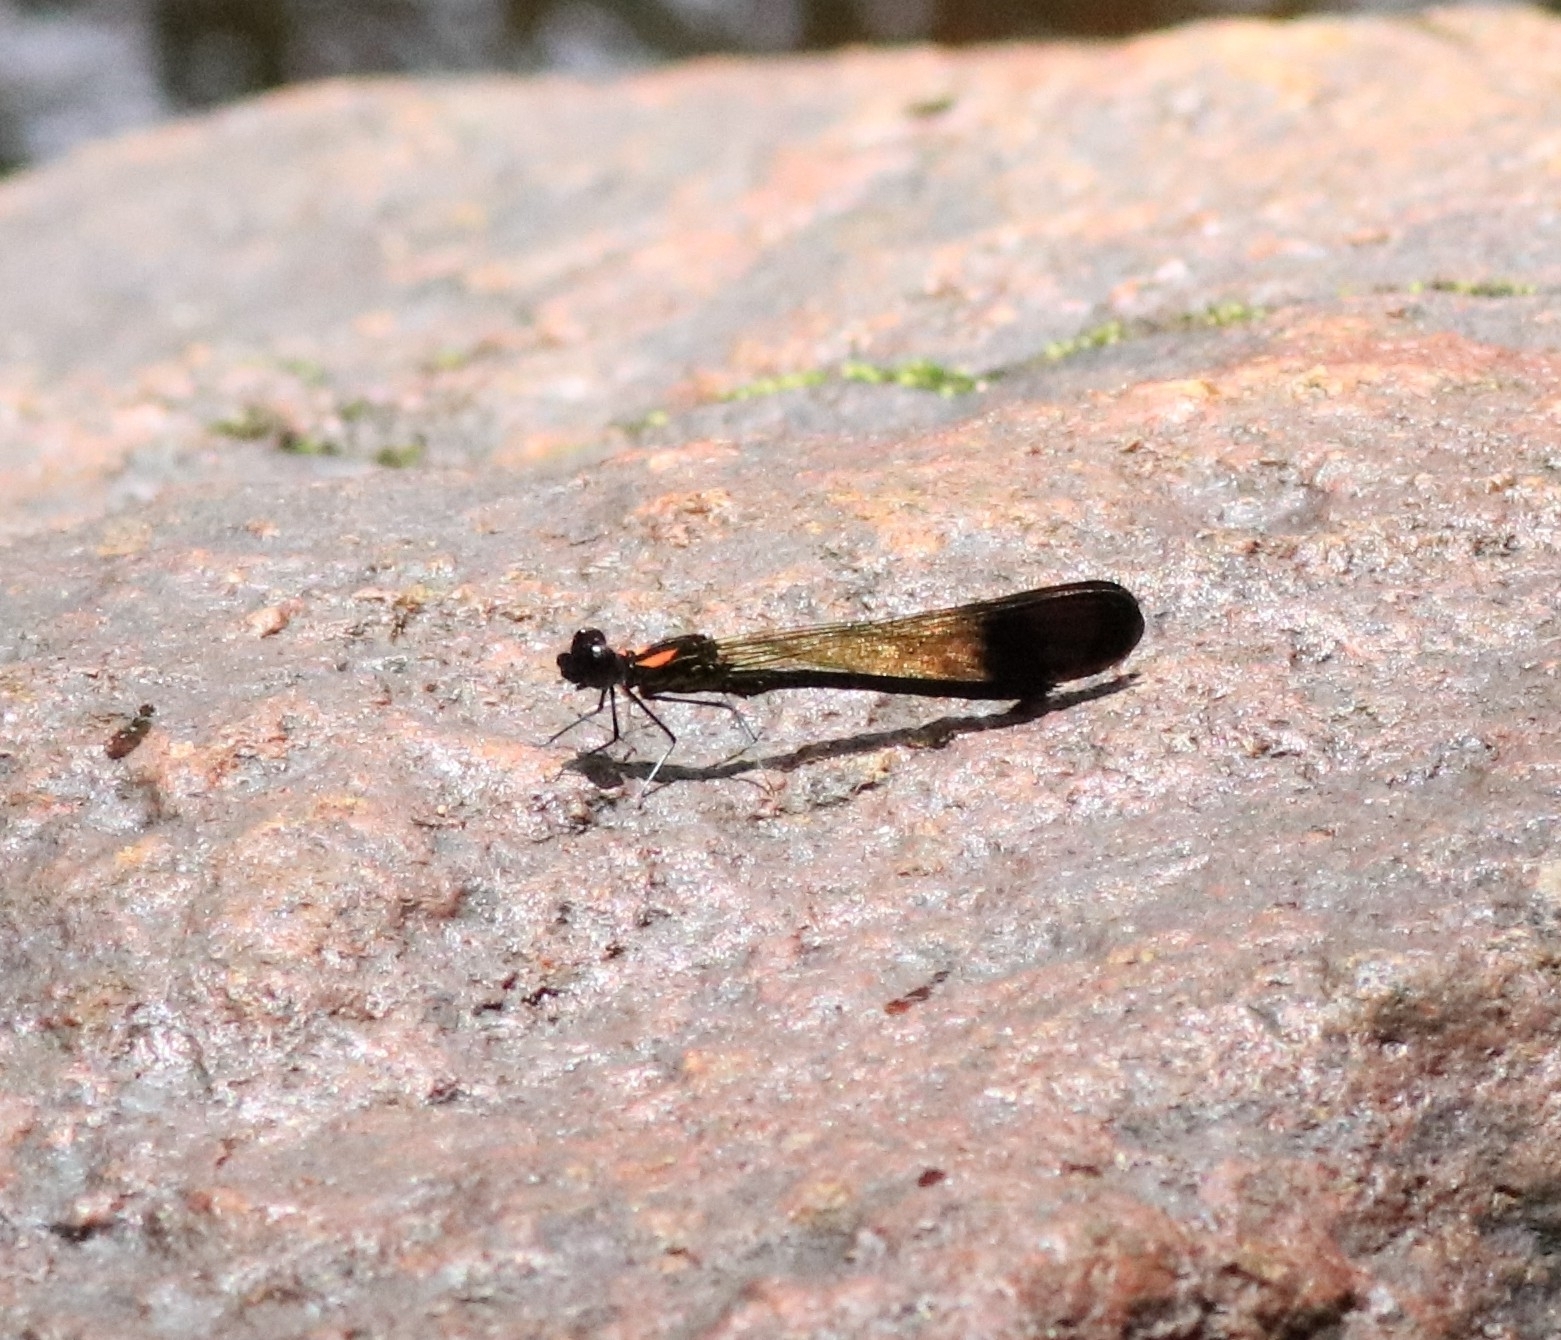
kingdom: Animalia
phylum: Arthropoda
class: Insecta
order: Odonata
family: Chlorocyphidae
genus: Heliocypha
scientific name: Heliocypha bisignata
